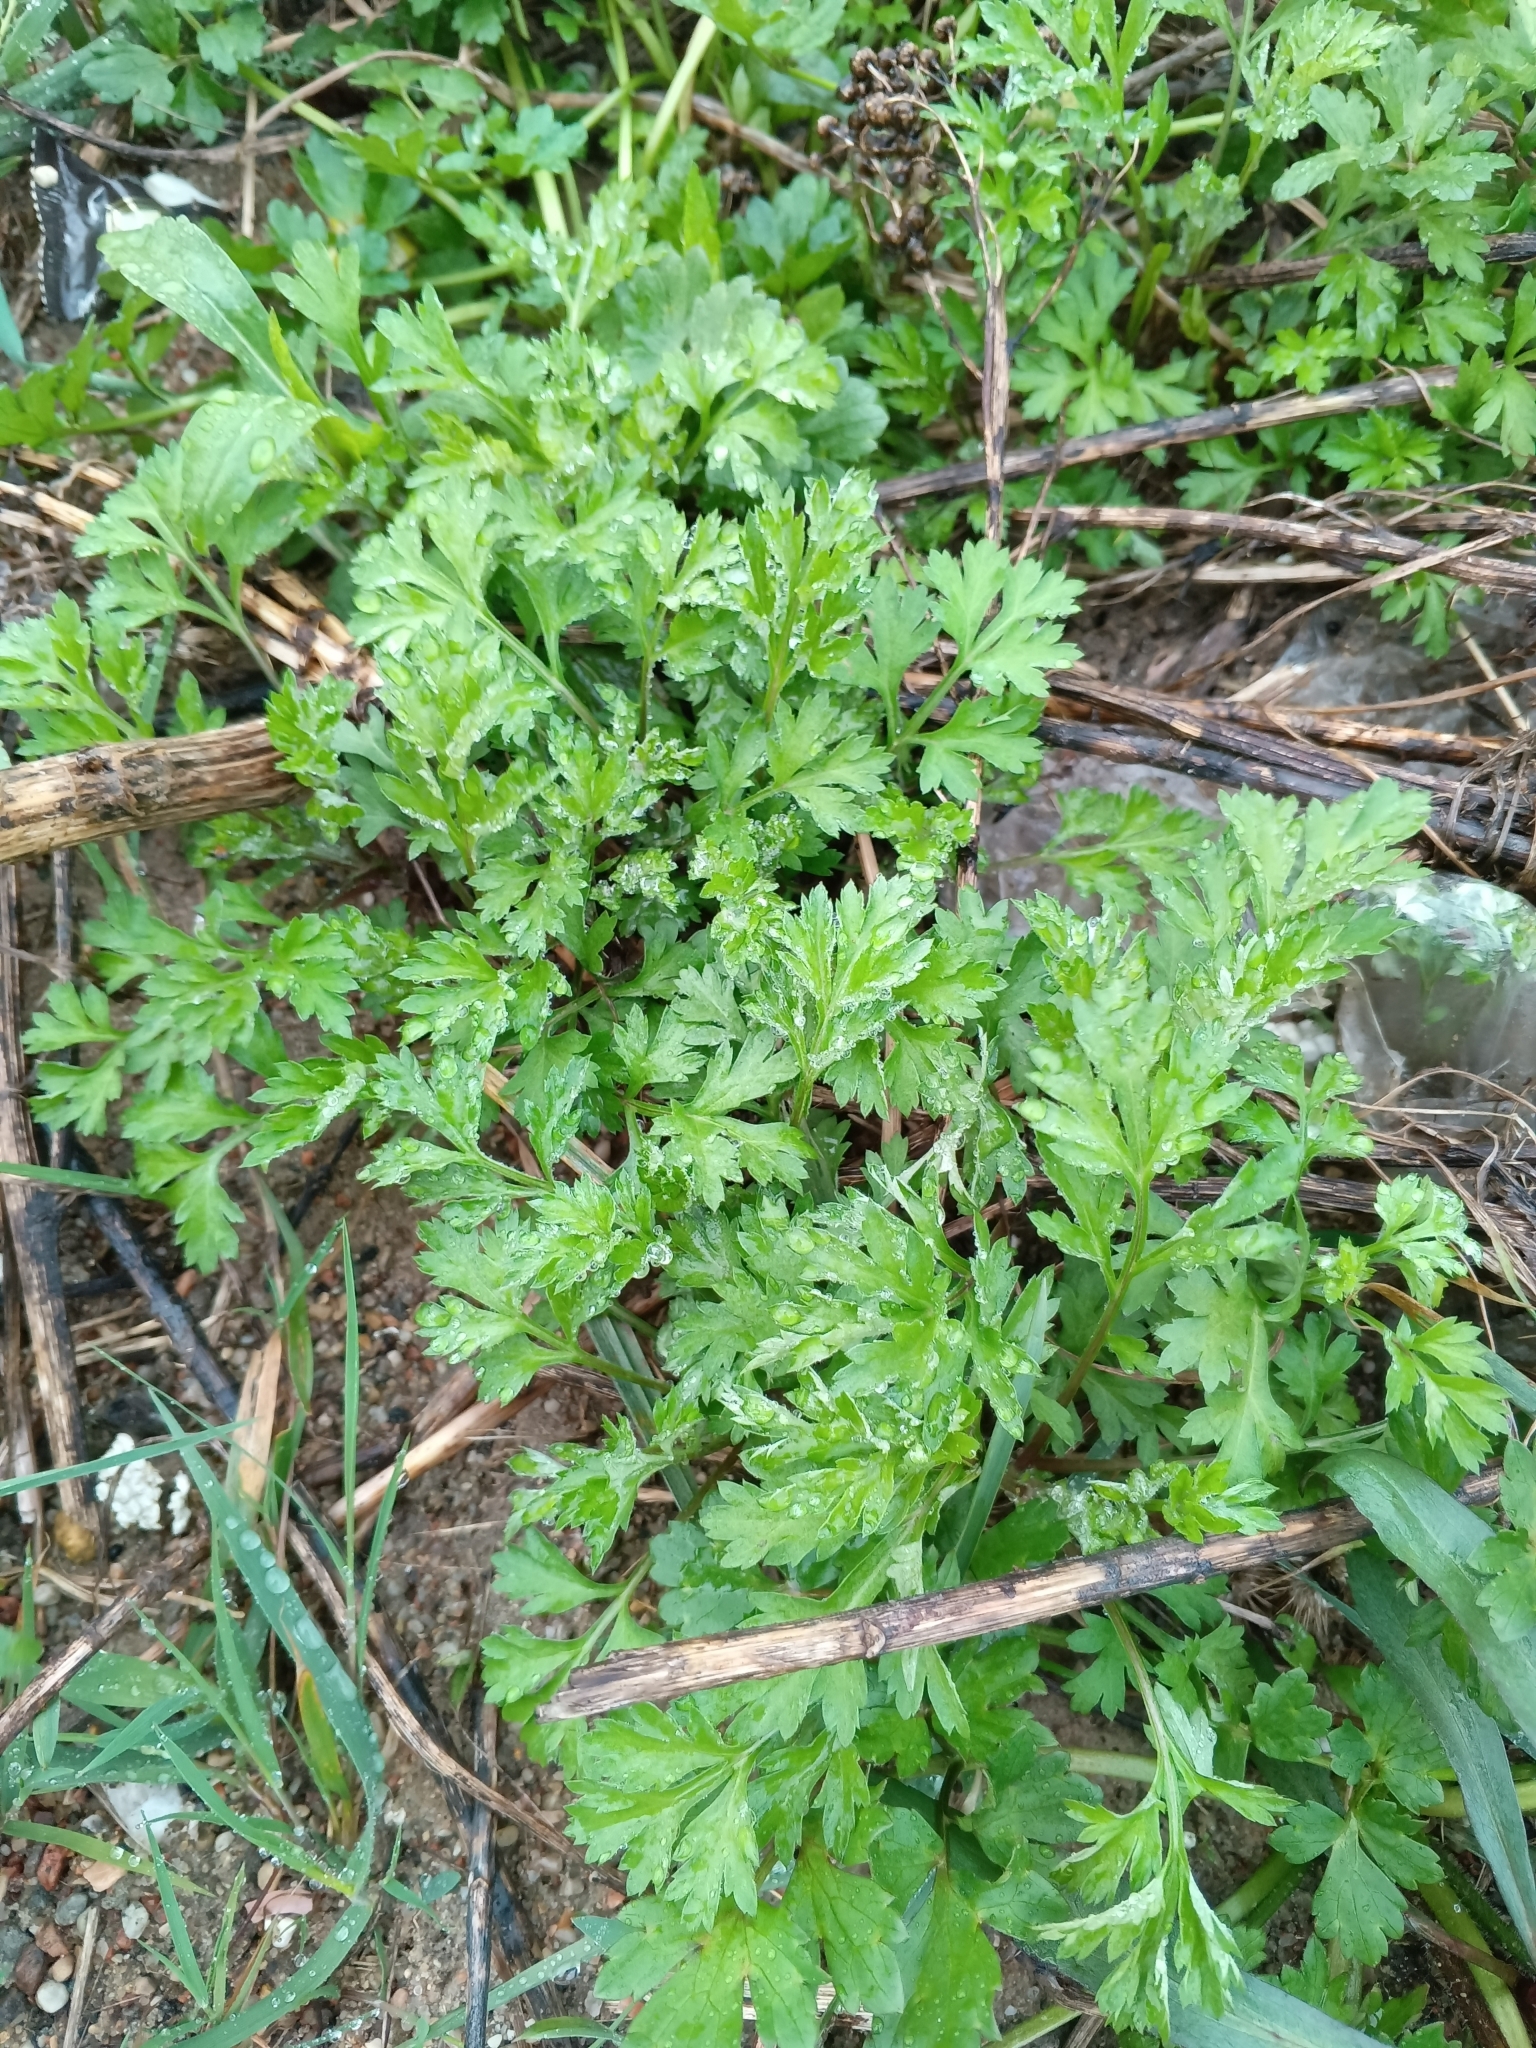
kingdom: Plantae
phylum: Tracheophyta
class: Magnoliopsida
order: Asterales
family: Asteraceae
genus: Artemisia
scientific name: Artemisia vulgaris
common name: Mugwort
